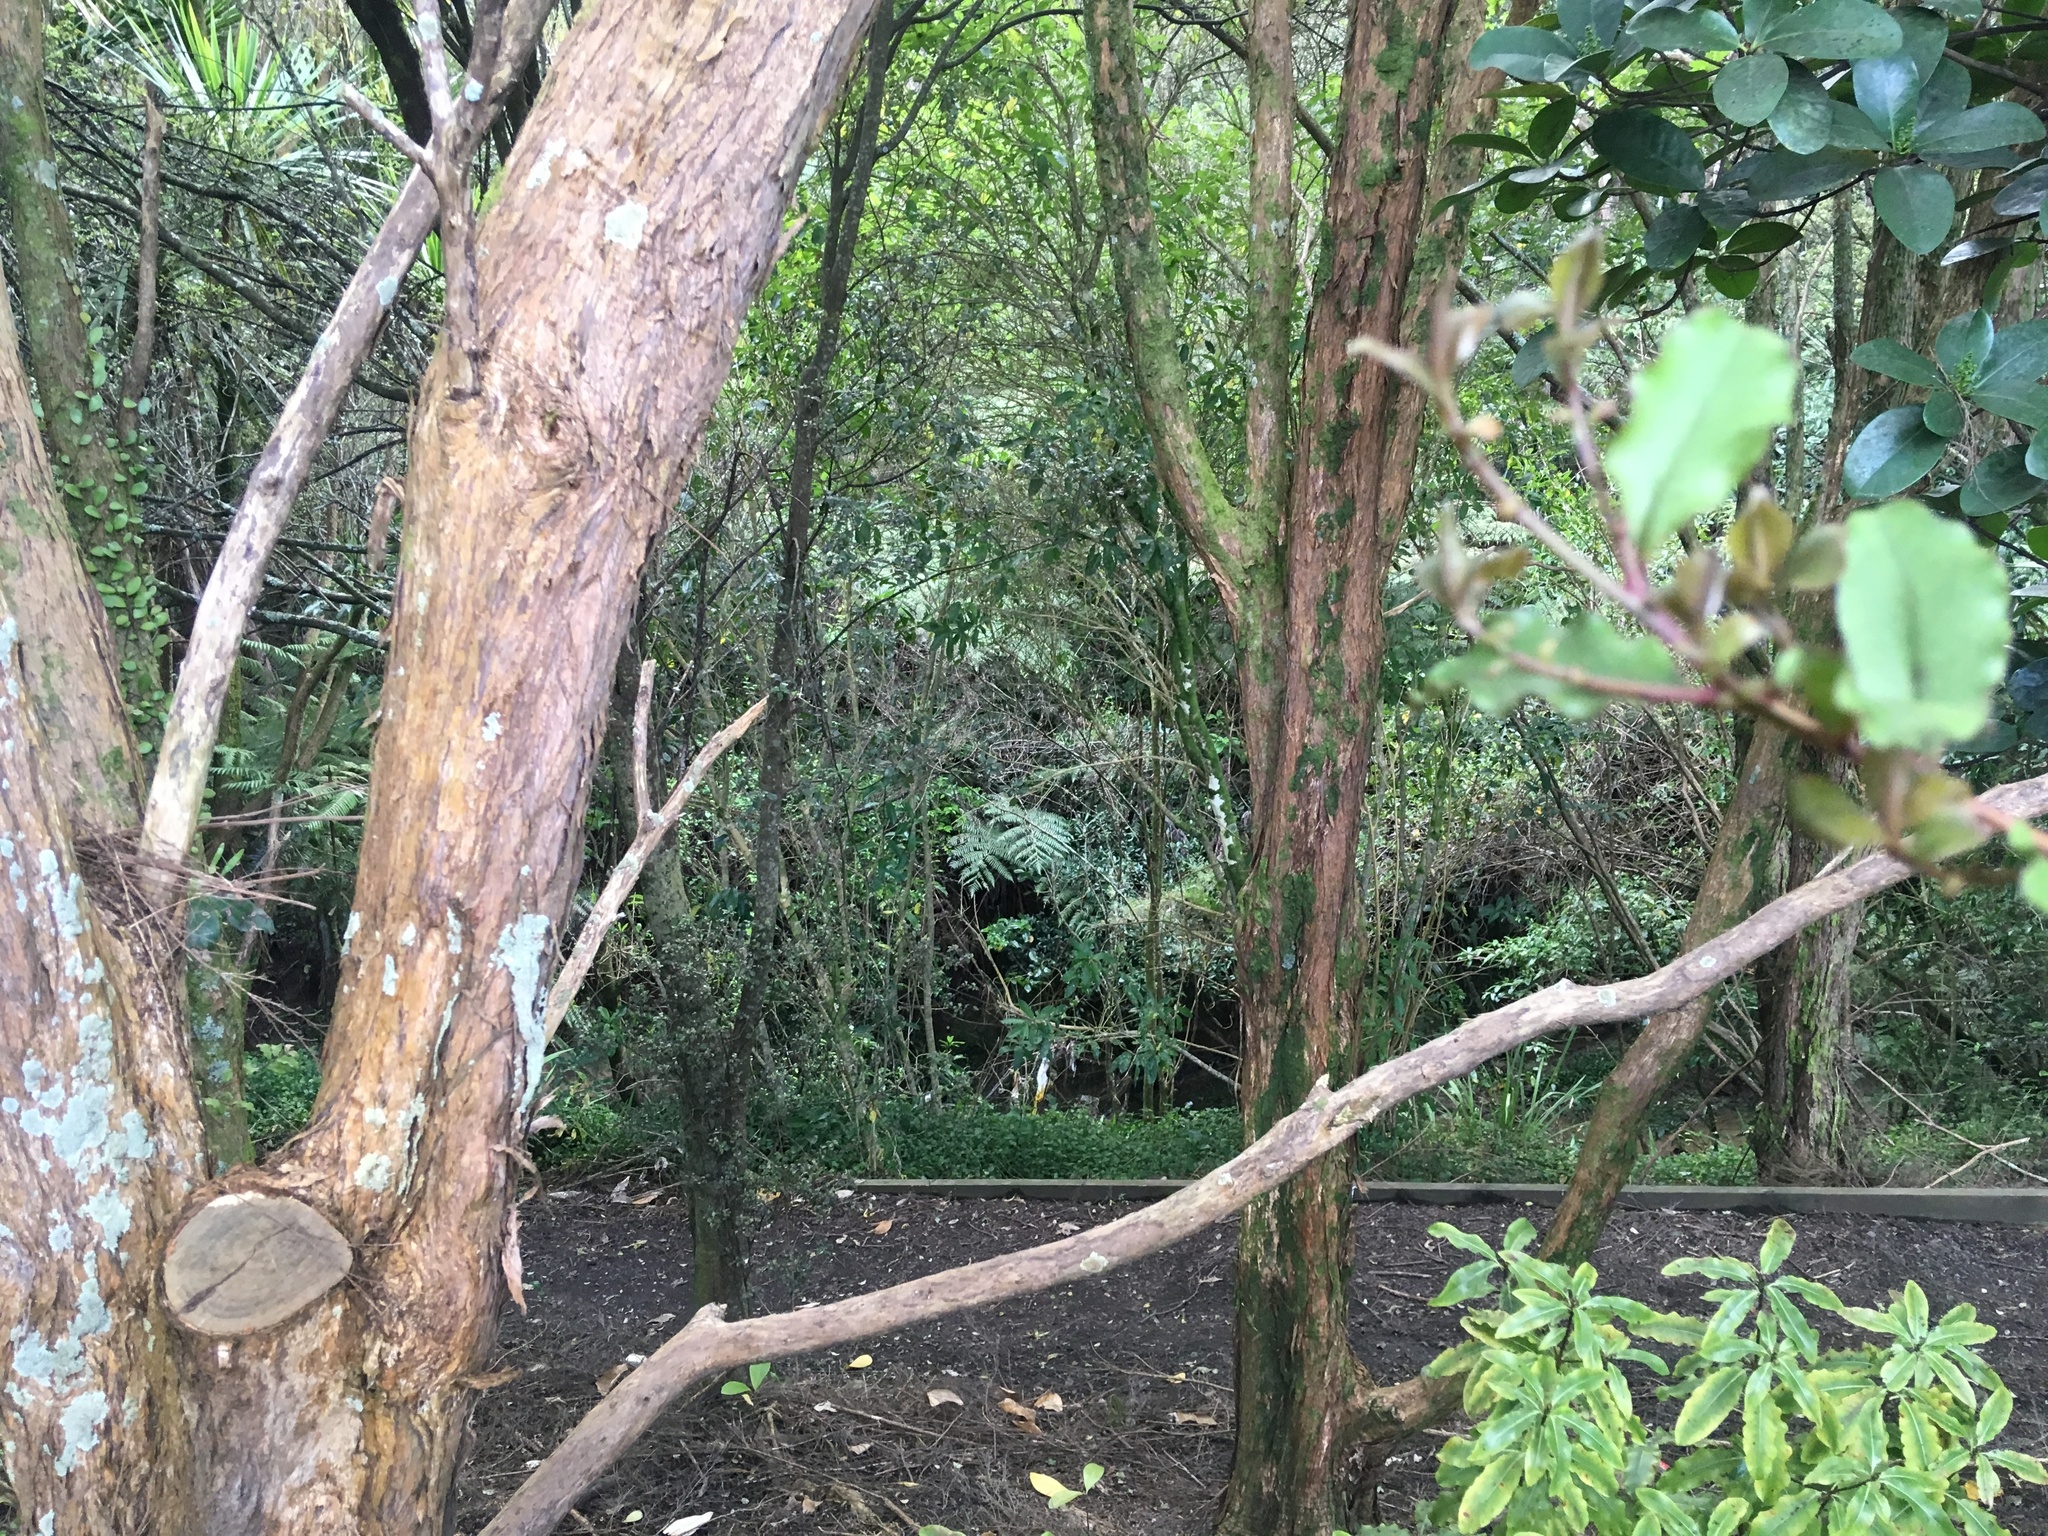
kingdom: Plantae
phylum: Tracheophyta
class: Liliopsida
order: Commelinales
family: Commelinaceae
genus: Tradescantia
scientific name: Tradescantia fluminensis
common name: Wandering-jew
